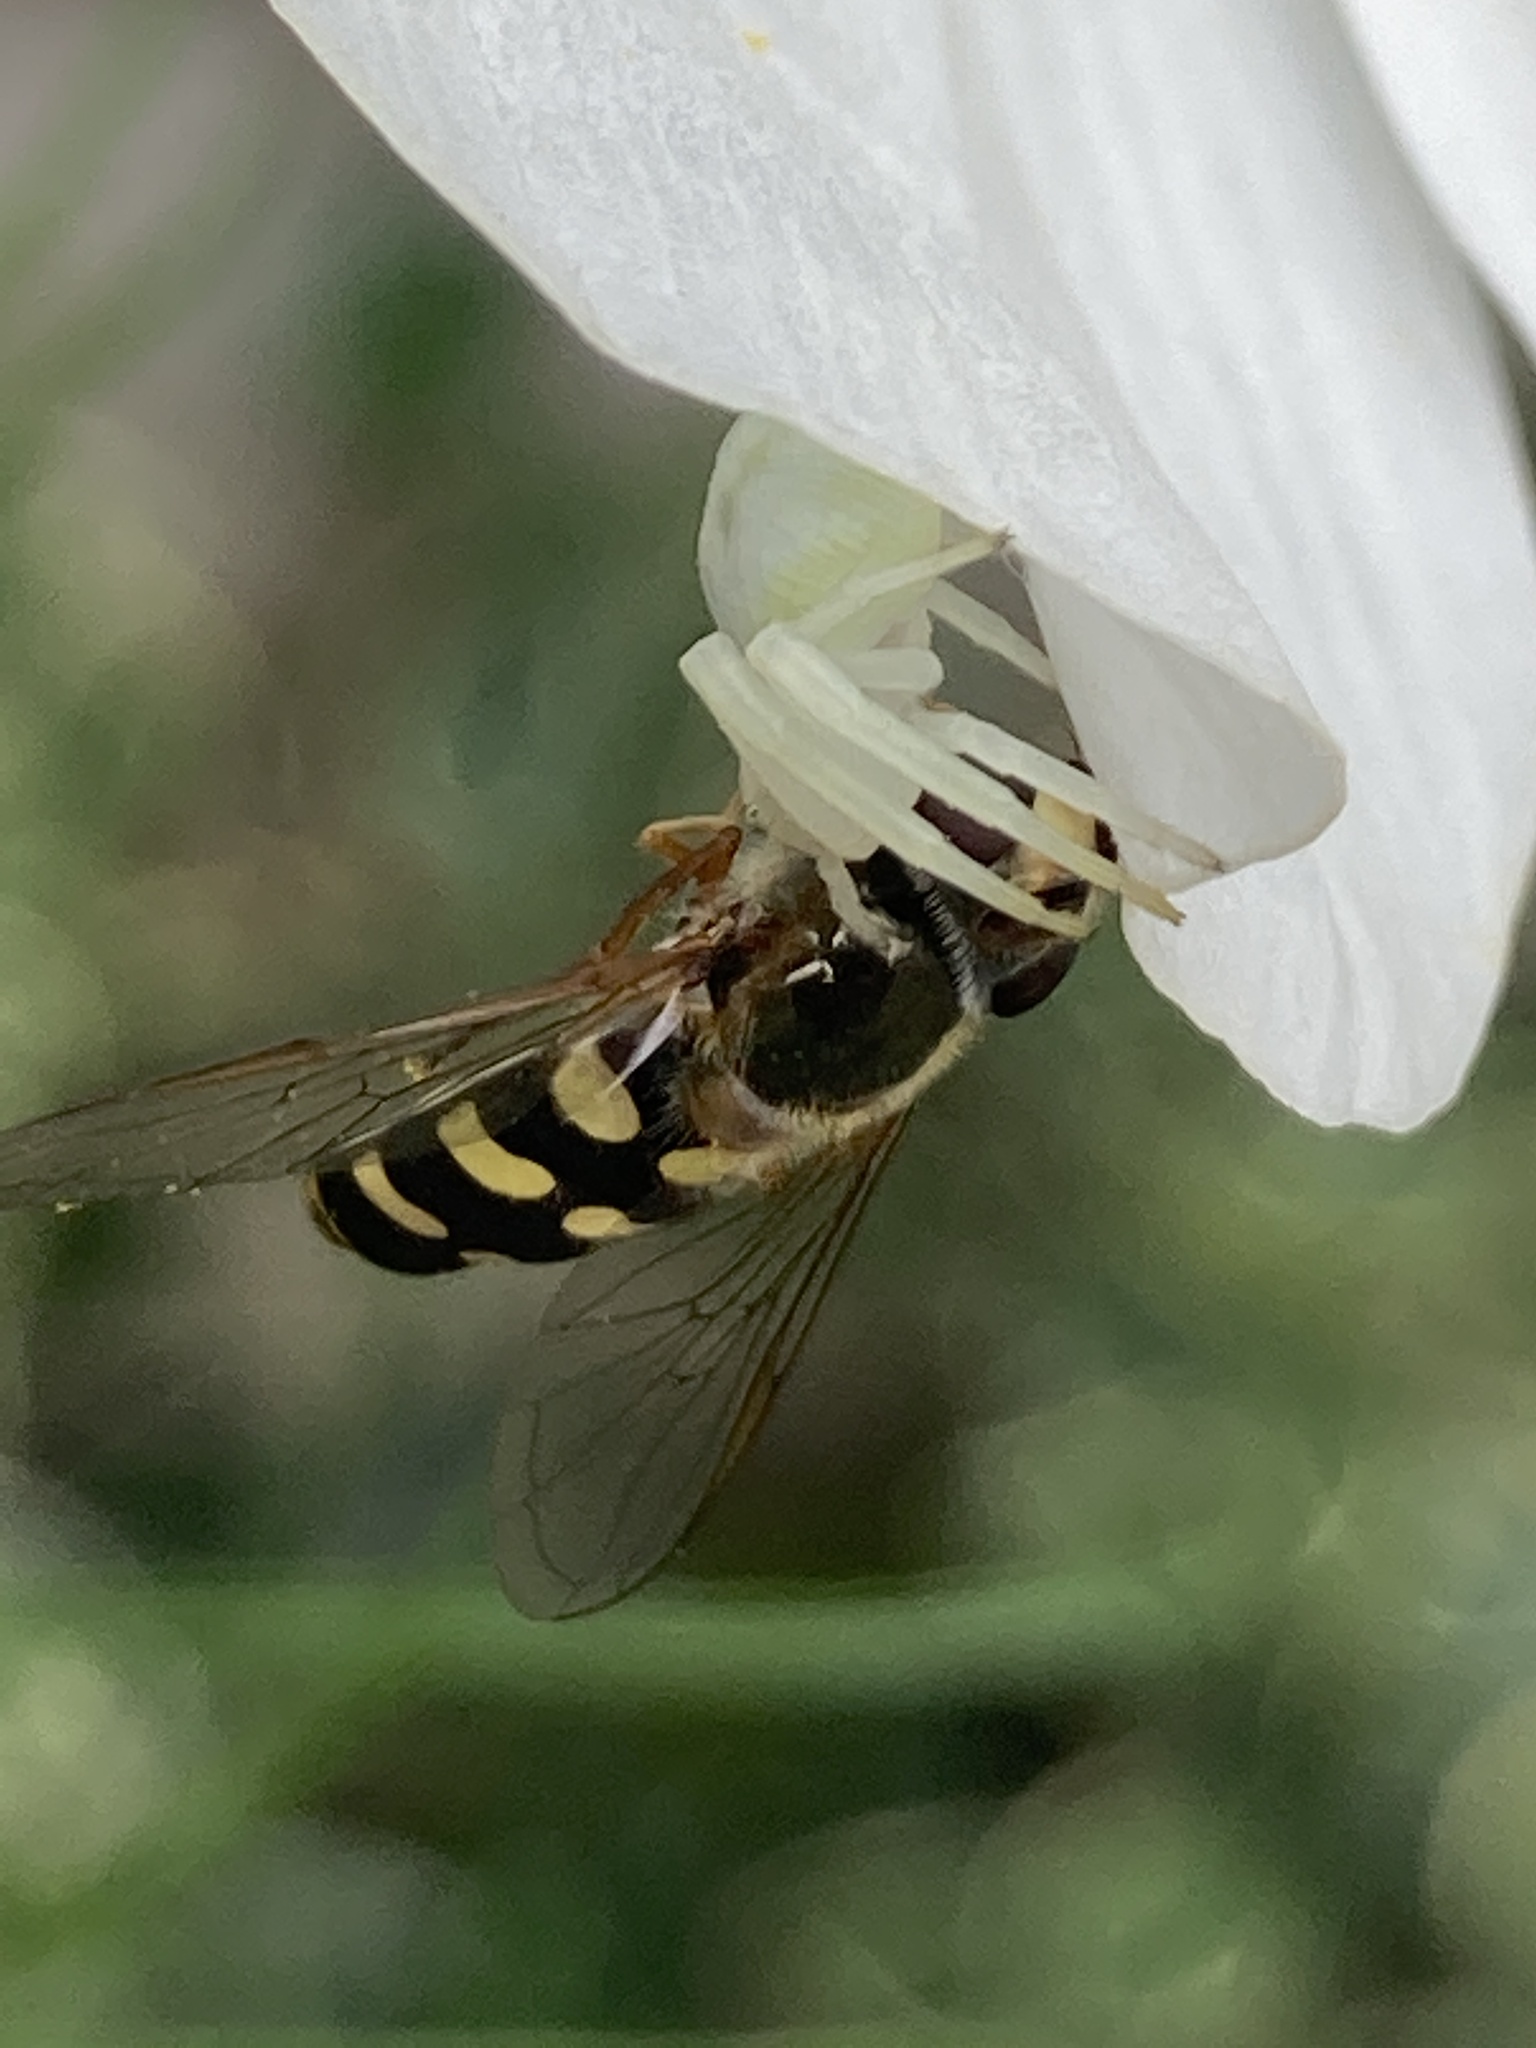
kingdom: Animalia
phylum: Arthropoda
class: Arachnida
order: Araneae
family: Thomisidae
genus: Misumena
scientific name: Misumena vatia
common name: Goldenrod crab spider
